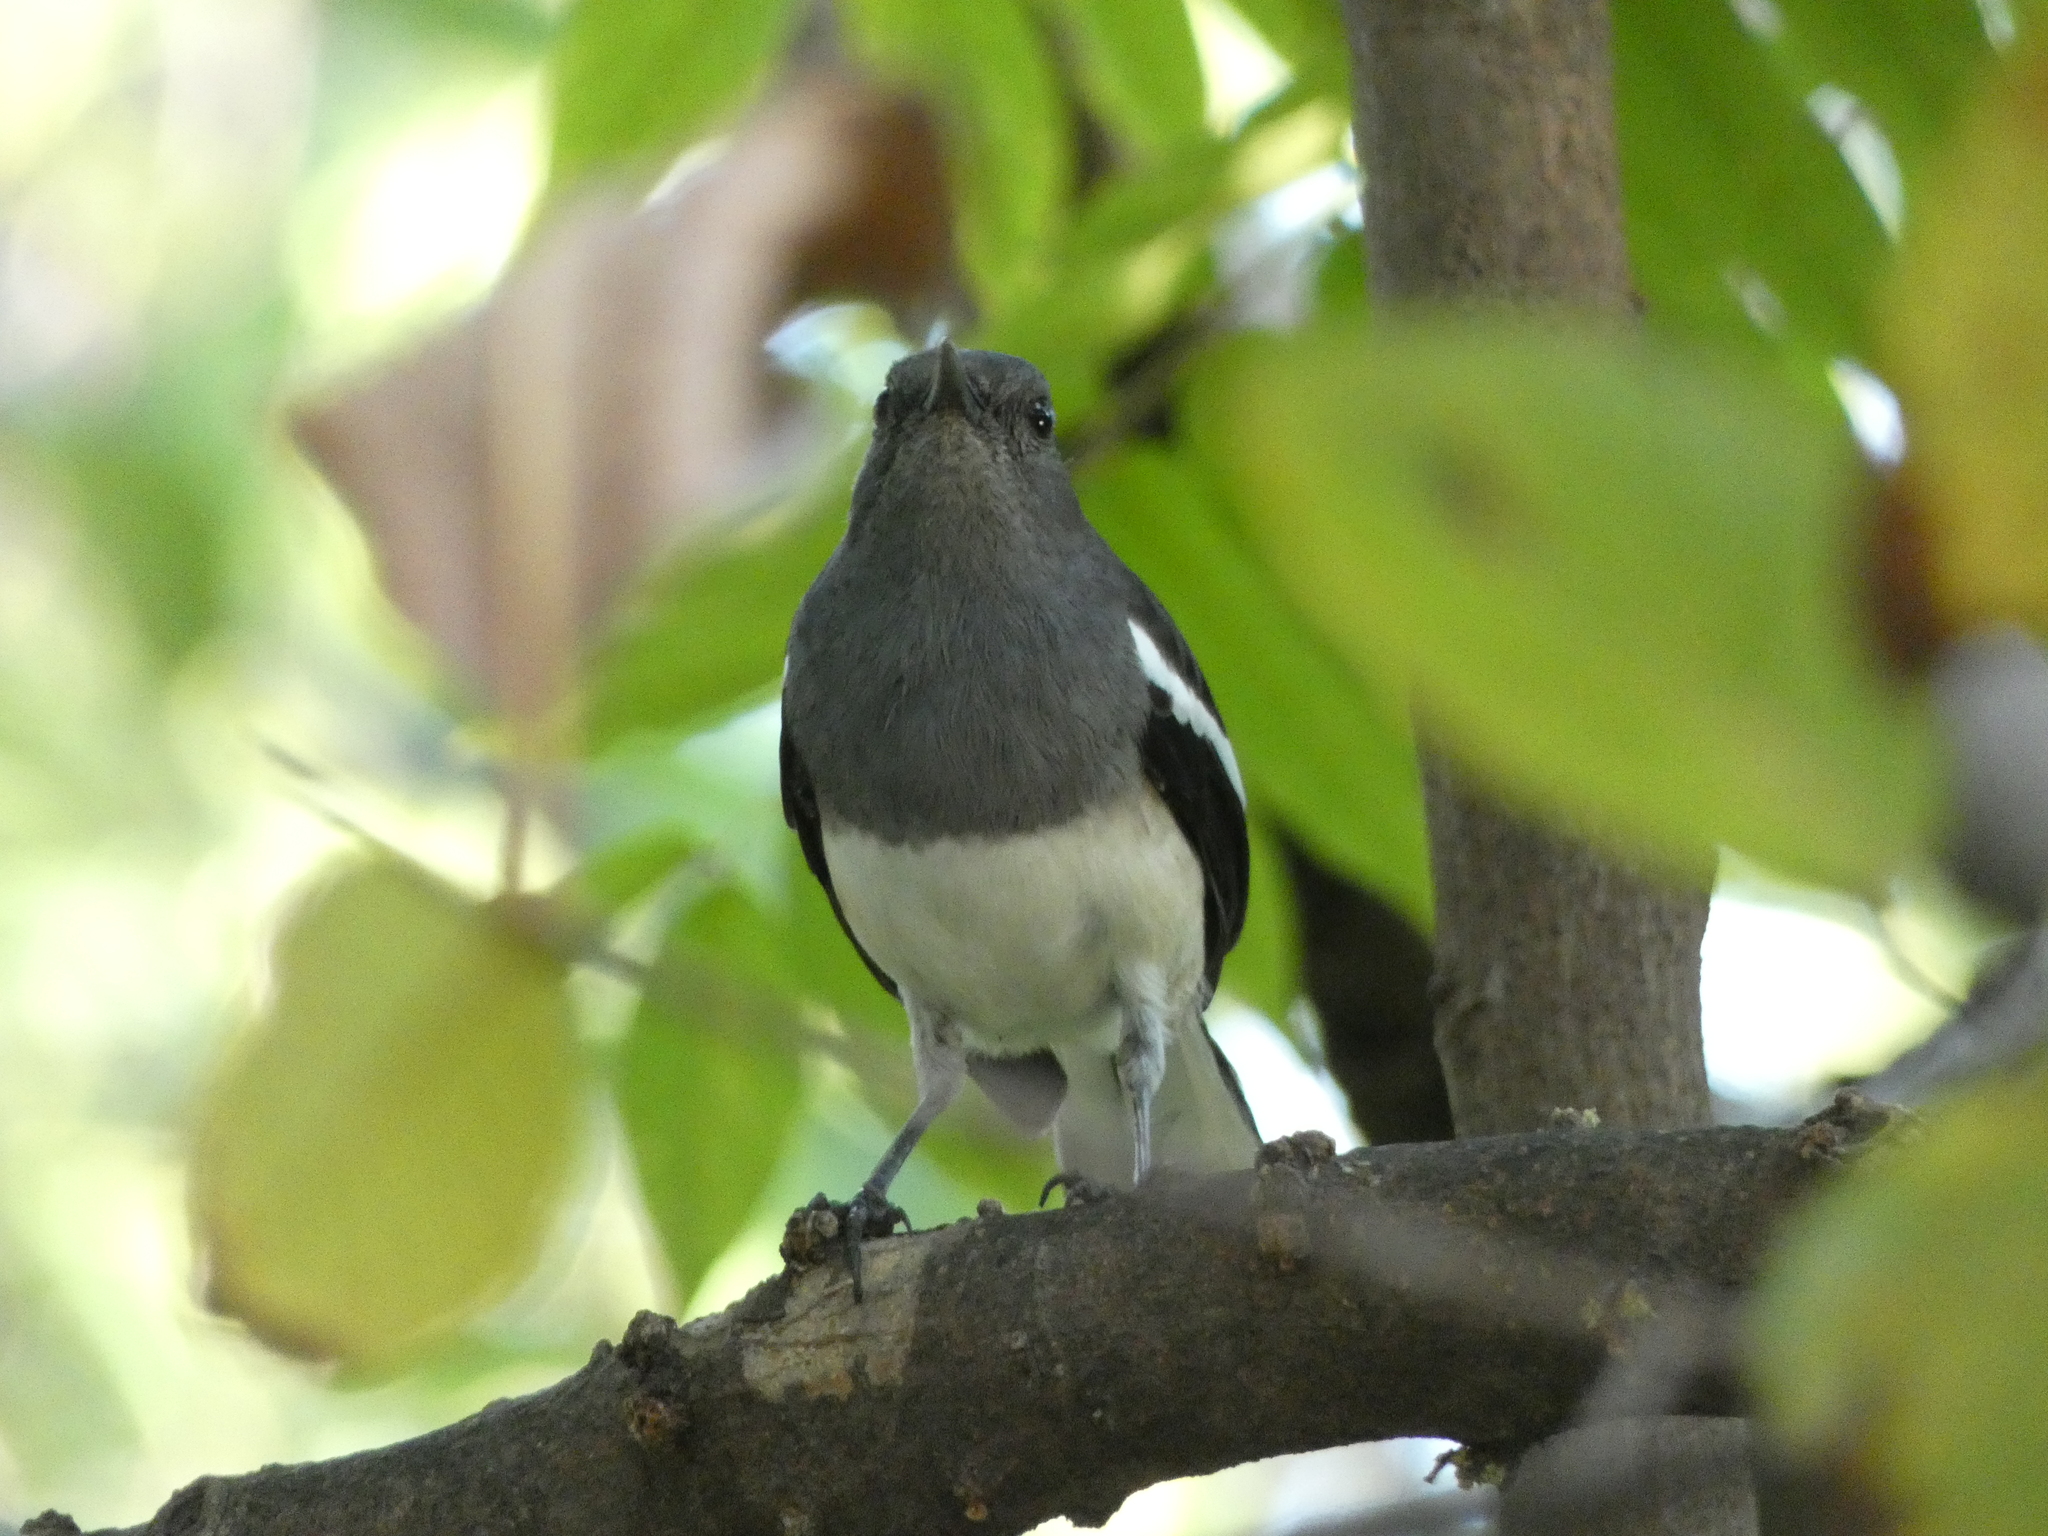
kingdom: Animalia
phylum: Chordata
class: Aves
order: Passeriformes
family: Muscicapidae
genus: Copsychus
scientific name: Copsychus saularis
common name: Oriental magpie-robin
